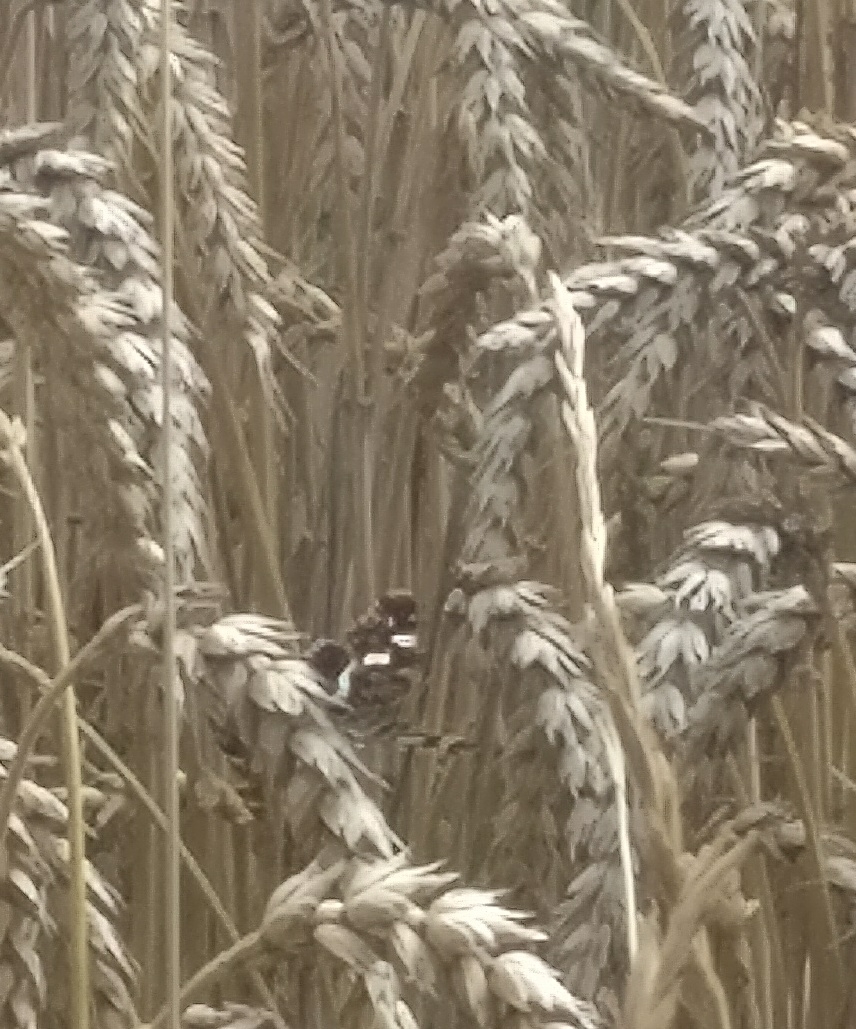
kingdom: Animalia
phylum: Arthropoda
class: Insecta
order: Lepidoptera
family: Nymphalidae
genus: Araschnia
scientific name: Araschnia levana
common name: Map butterfly
